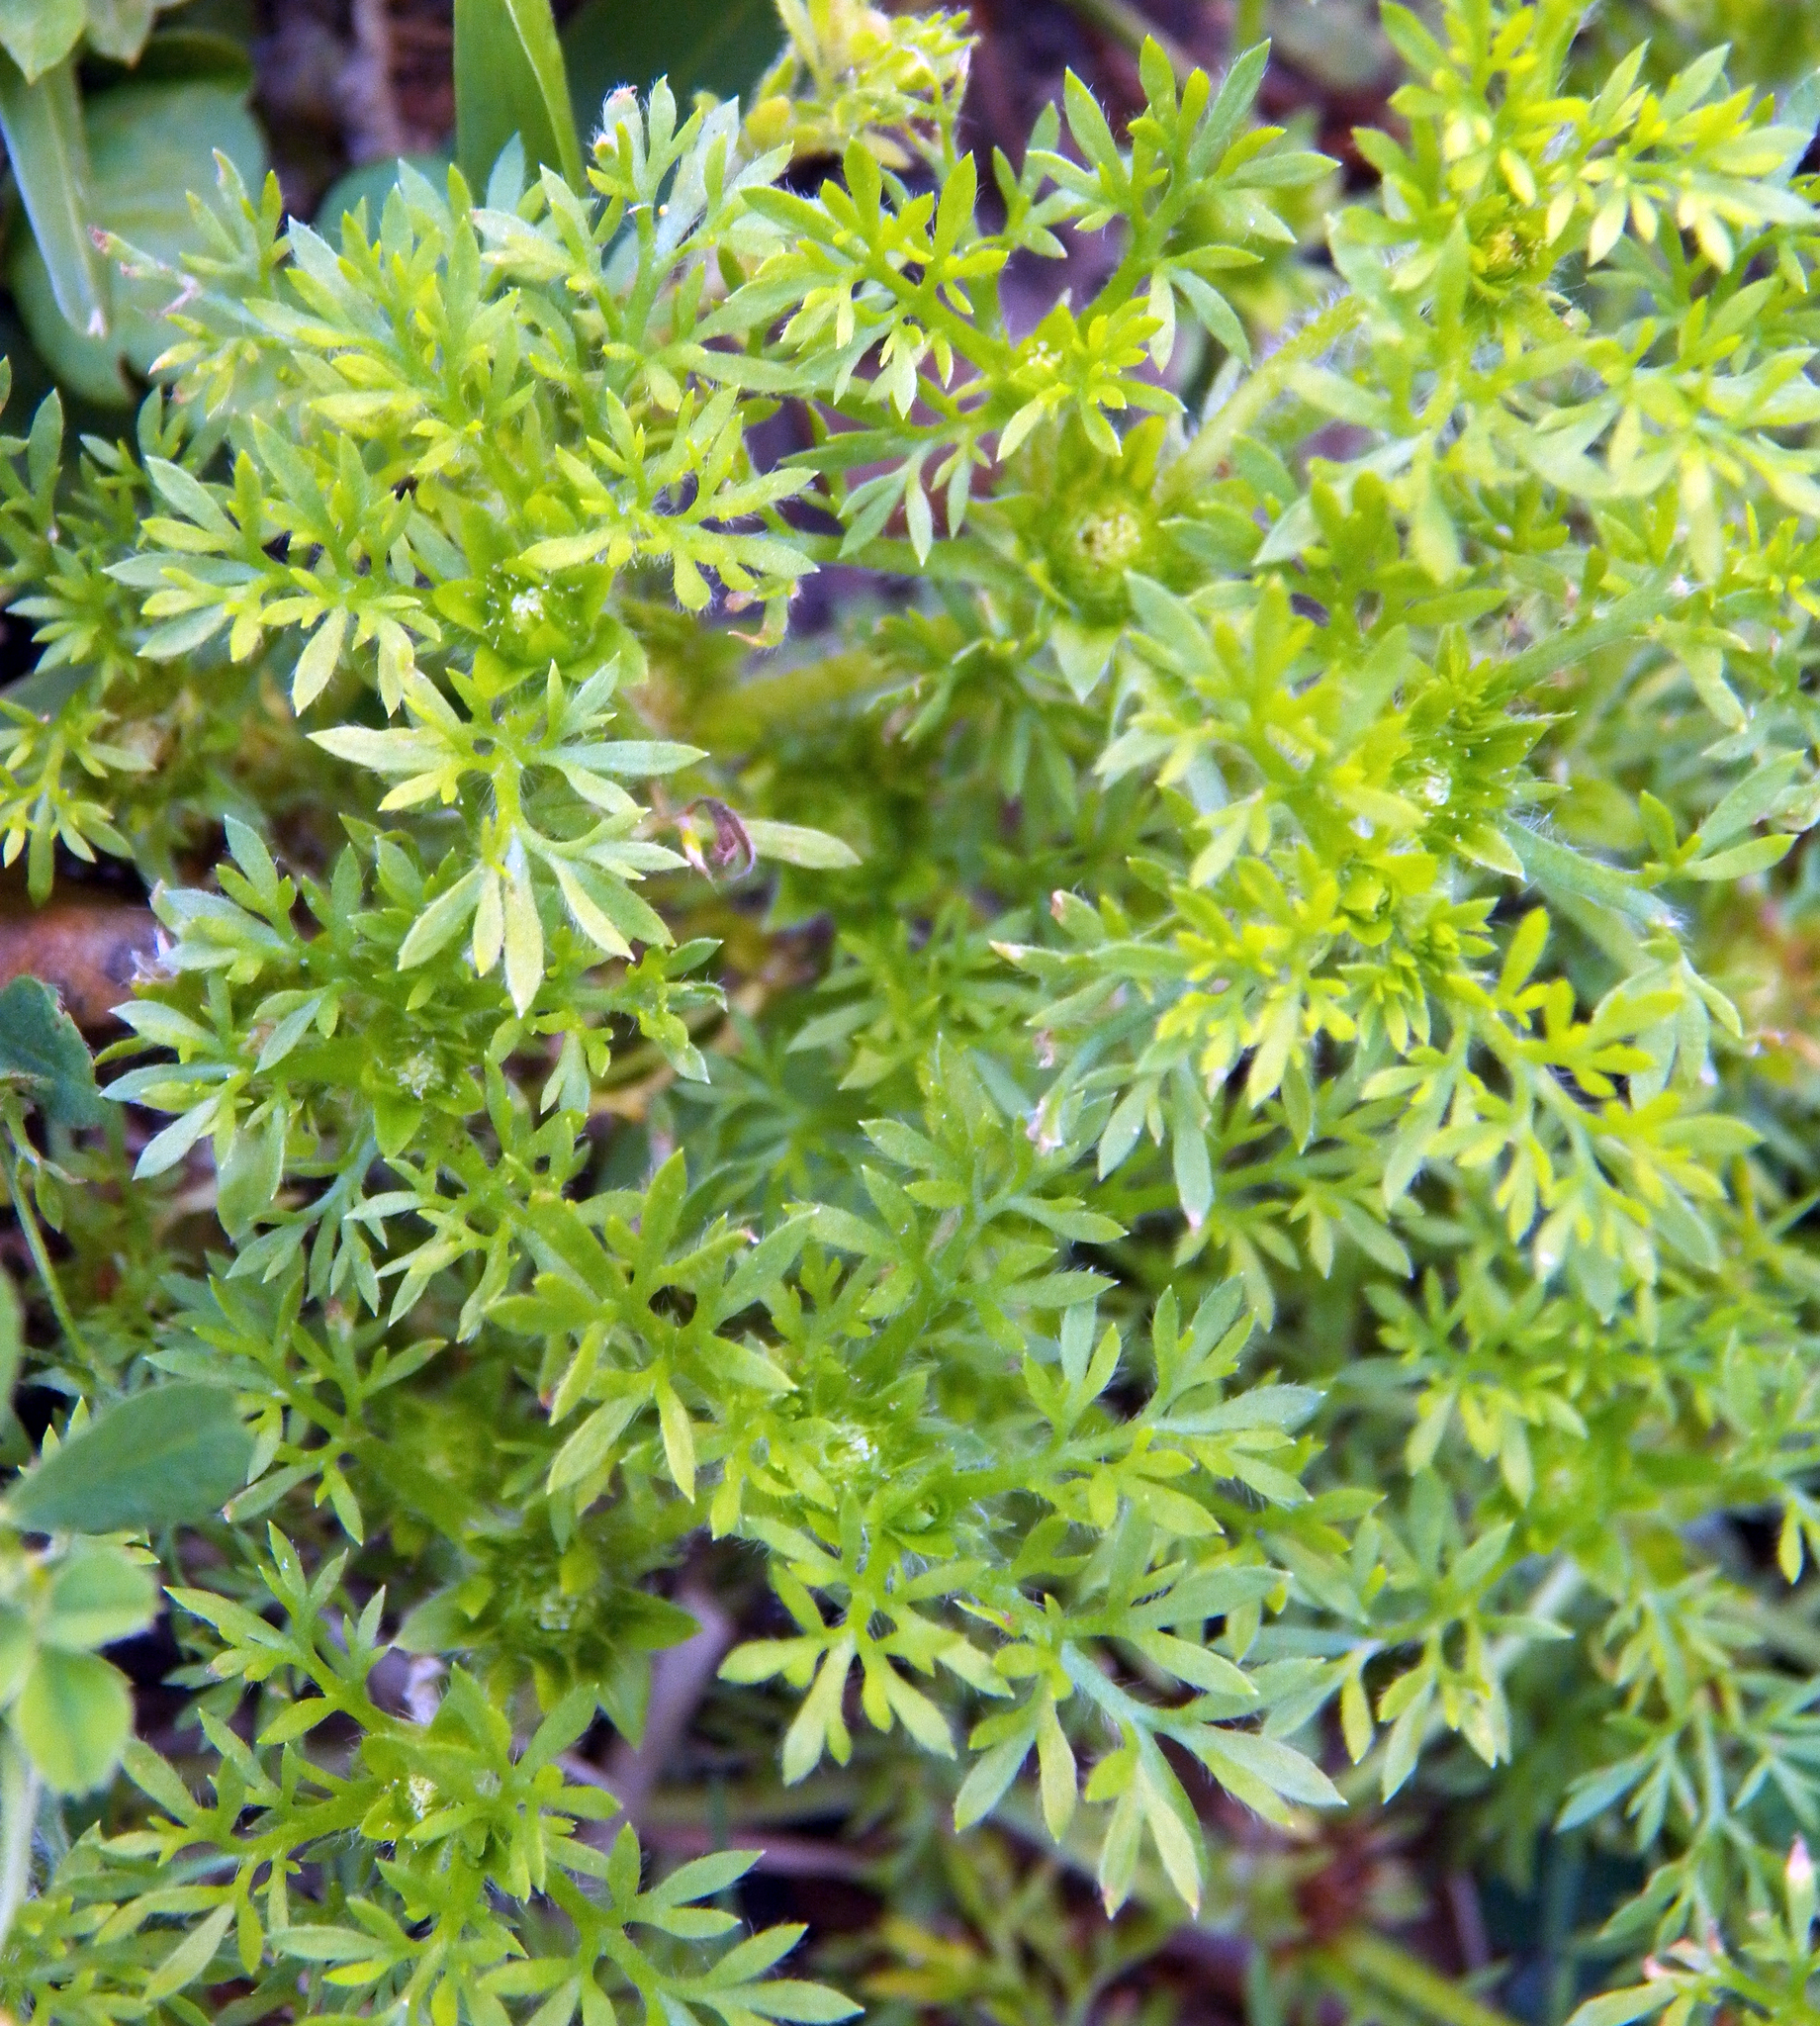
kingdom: Plantae
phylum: Tracheophyta
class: Magnoliopsida
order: Asterales
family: Asteraceae
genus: Soliva
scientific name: Soliva sessilis
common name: Field burrweed
